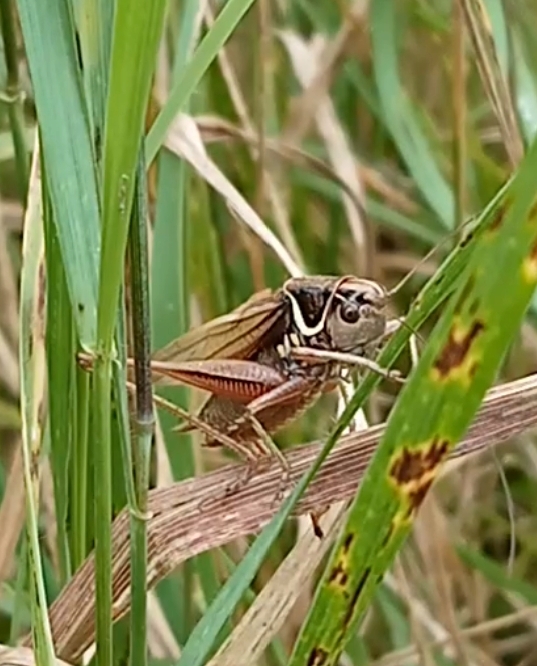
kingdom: Animalia
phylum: Arthropoda
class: Insecta
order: Orthoptera
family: Tettigoniidae
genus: Roeseliana
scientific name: Roeseliana roeselii
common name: Roesel's bush cricket
